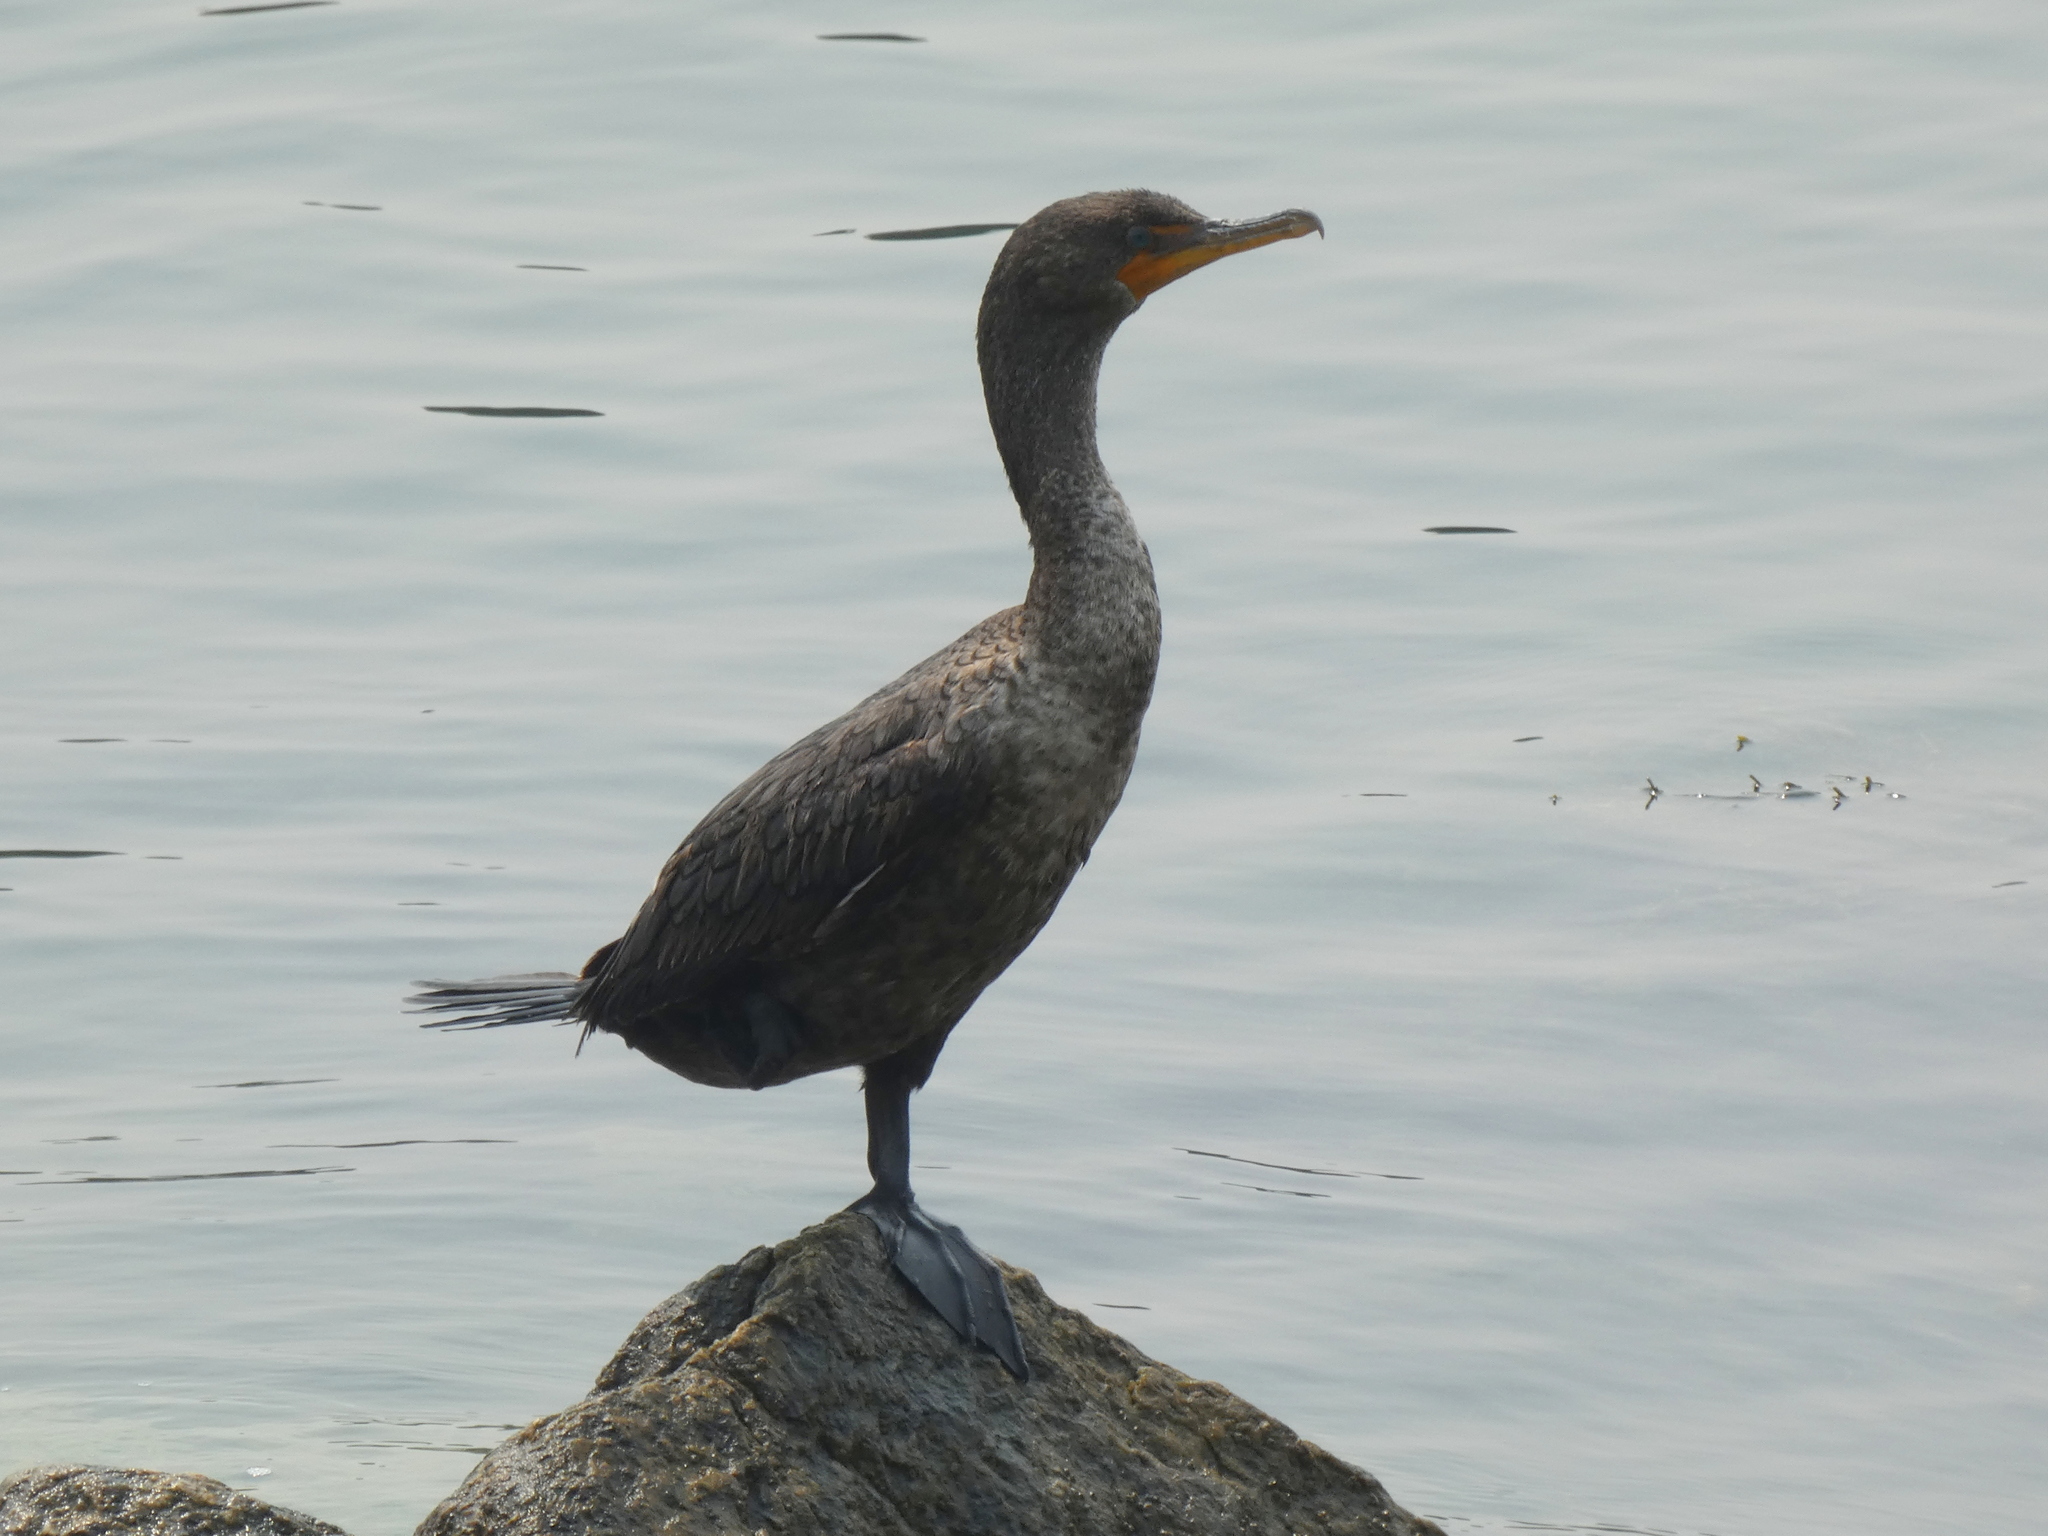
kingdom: Animalia
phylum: Chordata
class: Aves
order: Suliformes
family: Phalacrocoracidae
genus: Phalacrocorax
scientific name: Phalacrocorax auritus
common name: Double-crested cormorant
